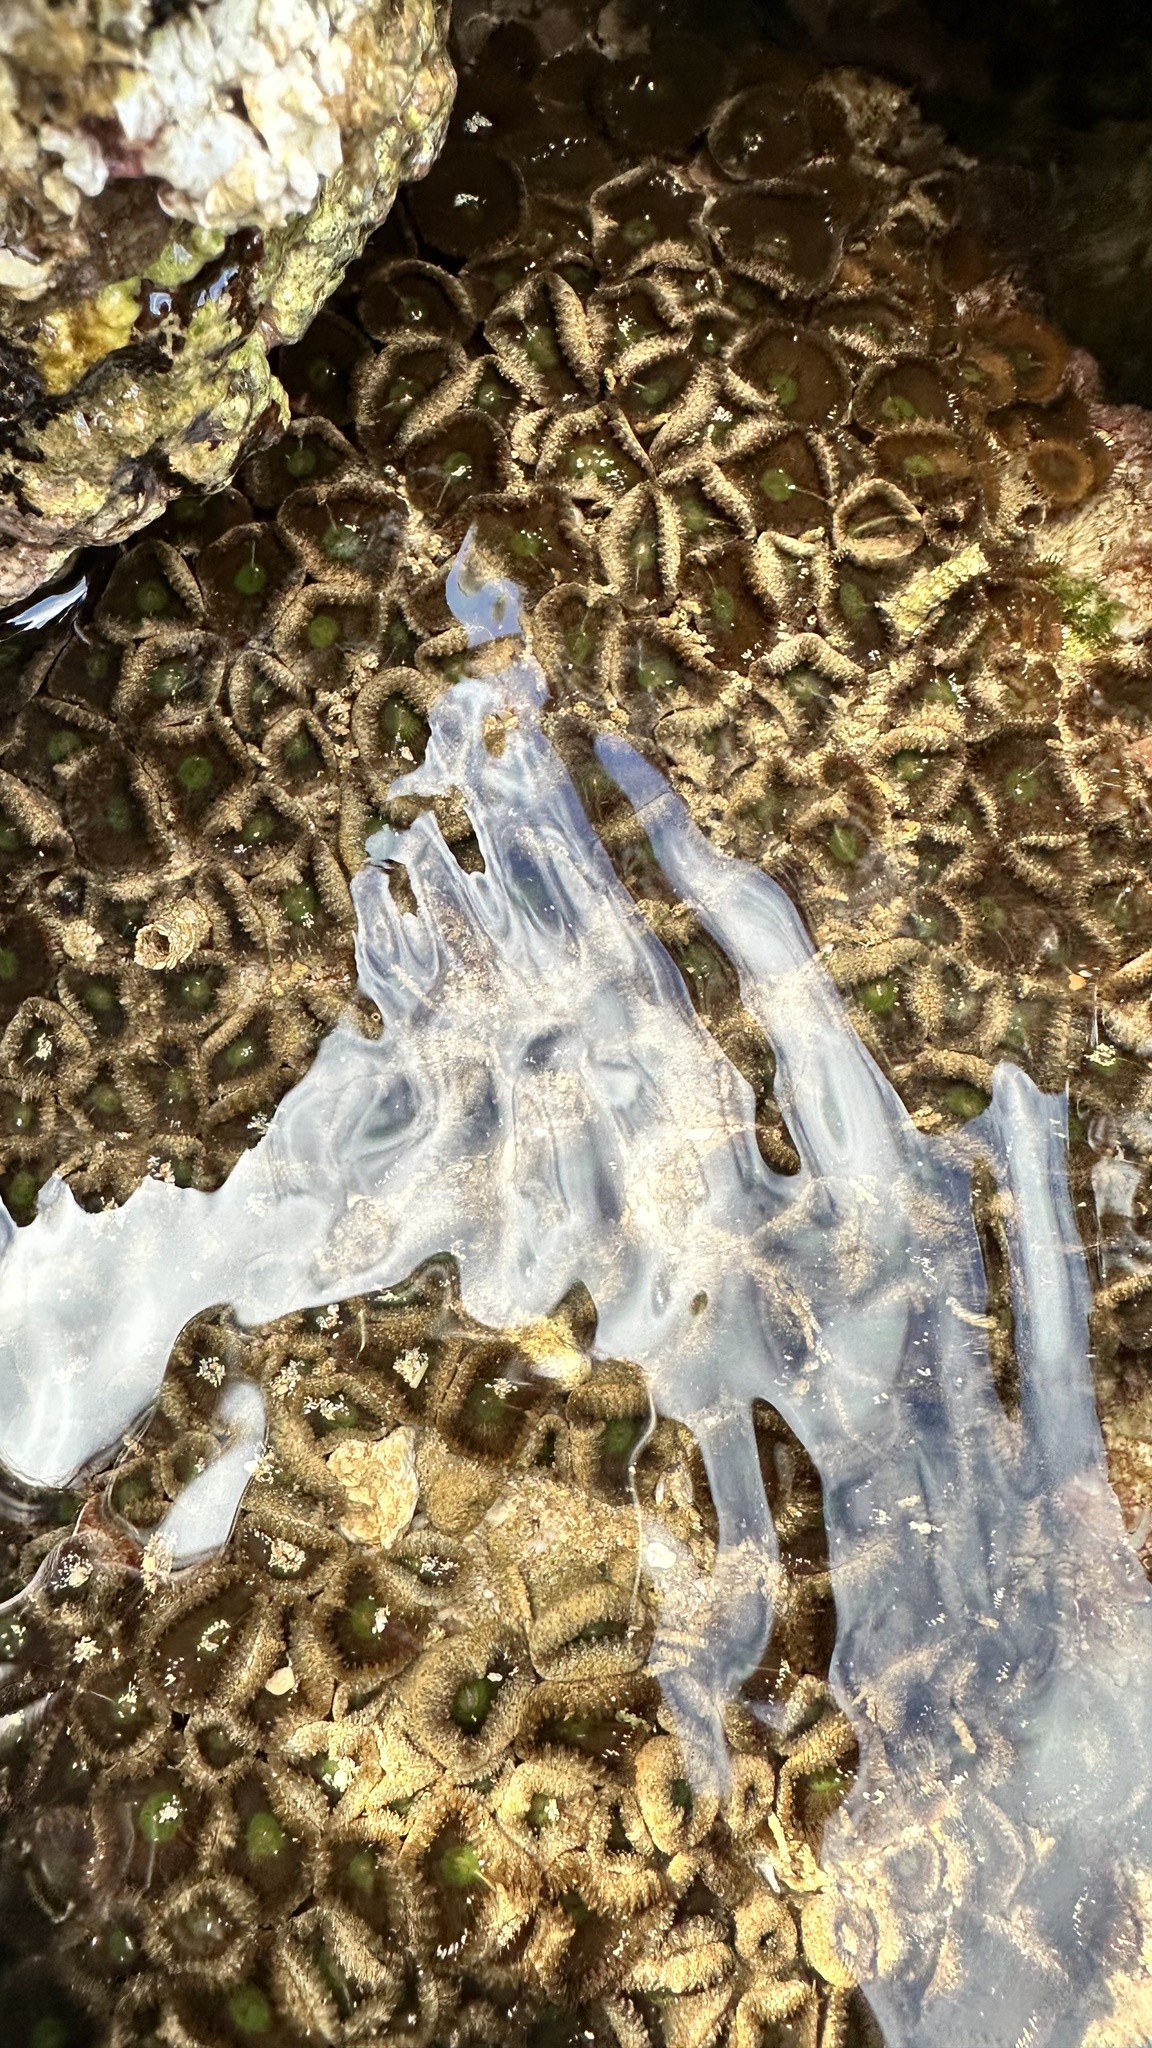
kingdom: Animalia
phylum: Cnidaria
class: Anthozoa
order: Zoantharia
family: Sphenopidae
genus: Palythoa
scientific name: Palythoa mutuki
